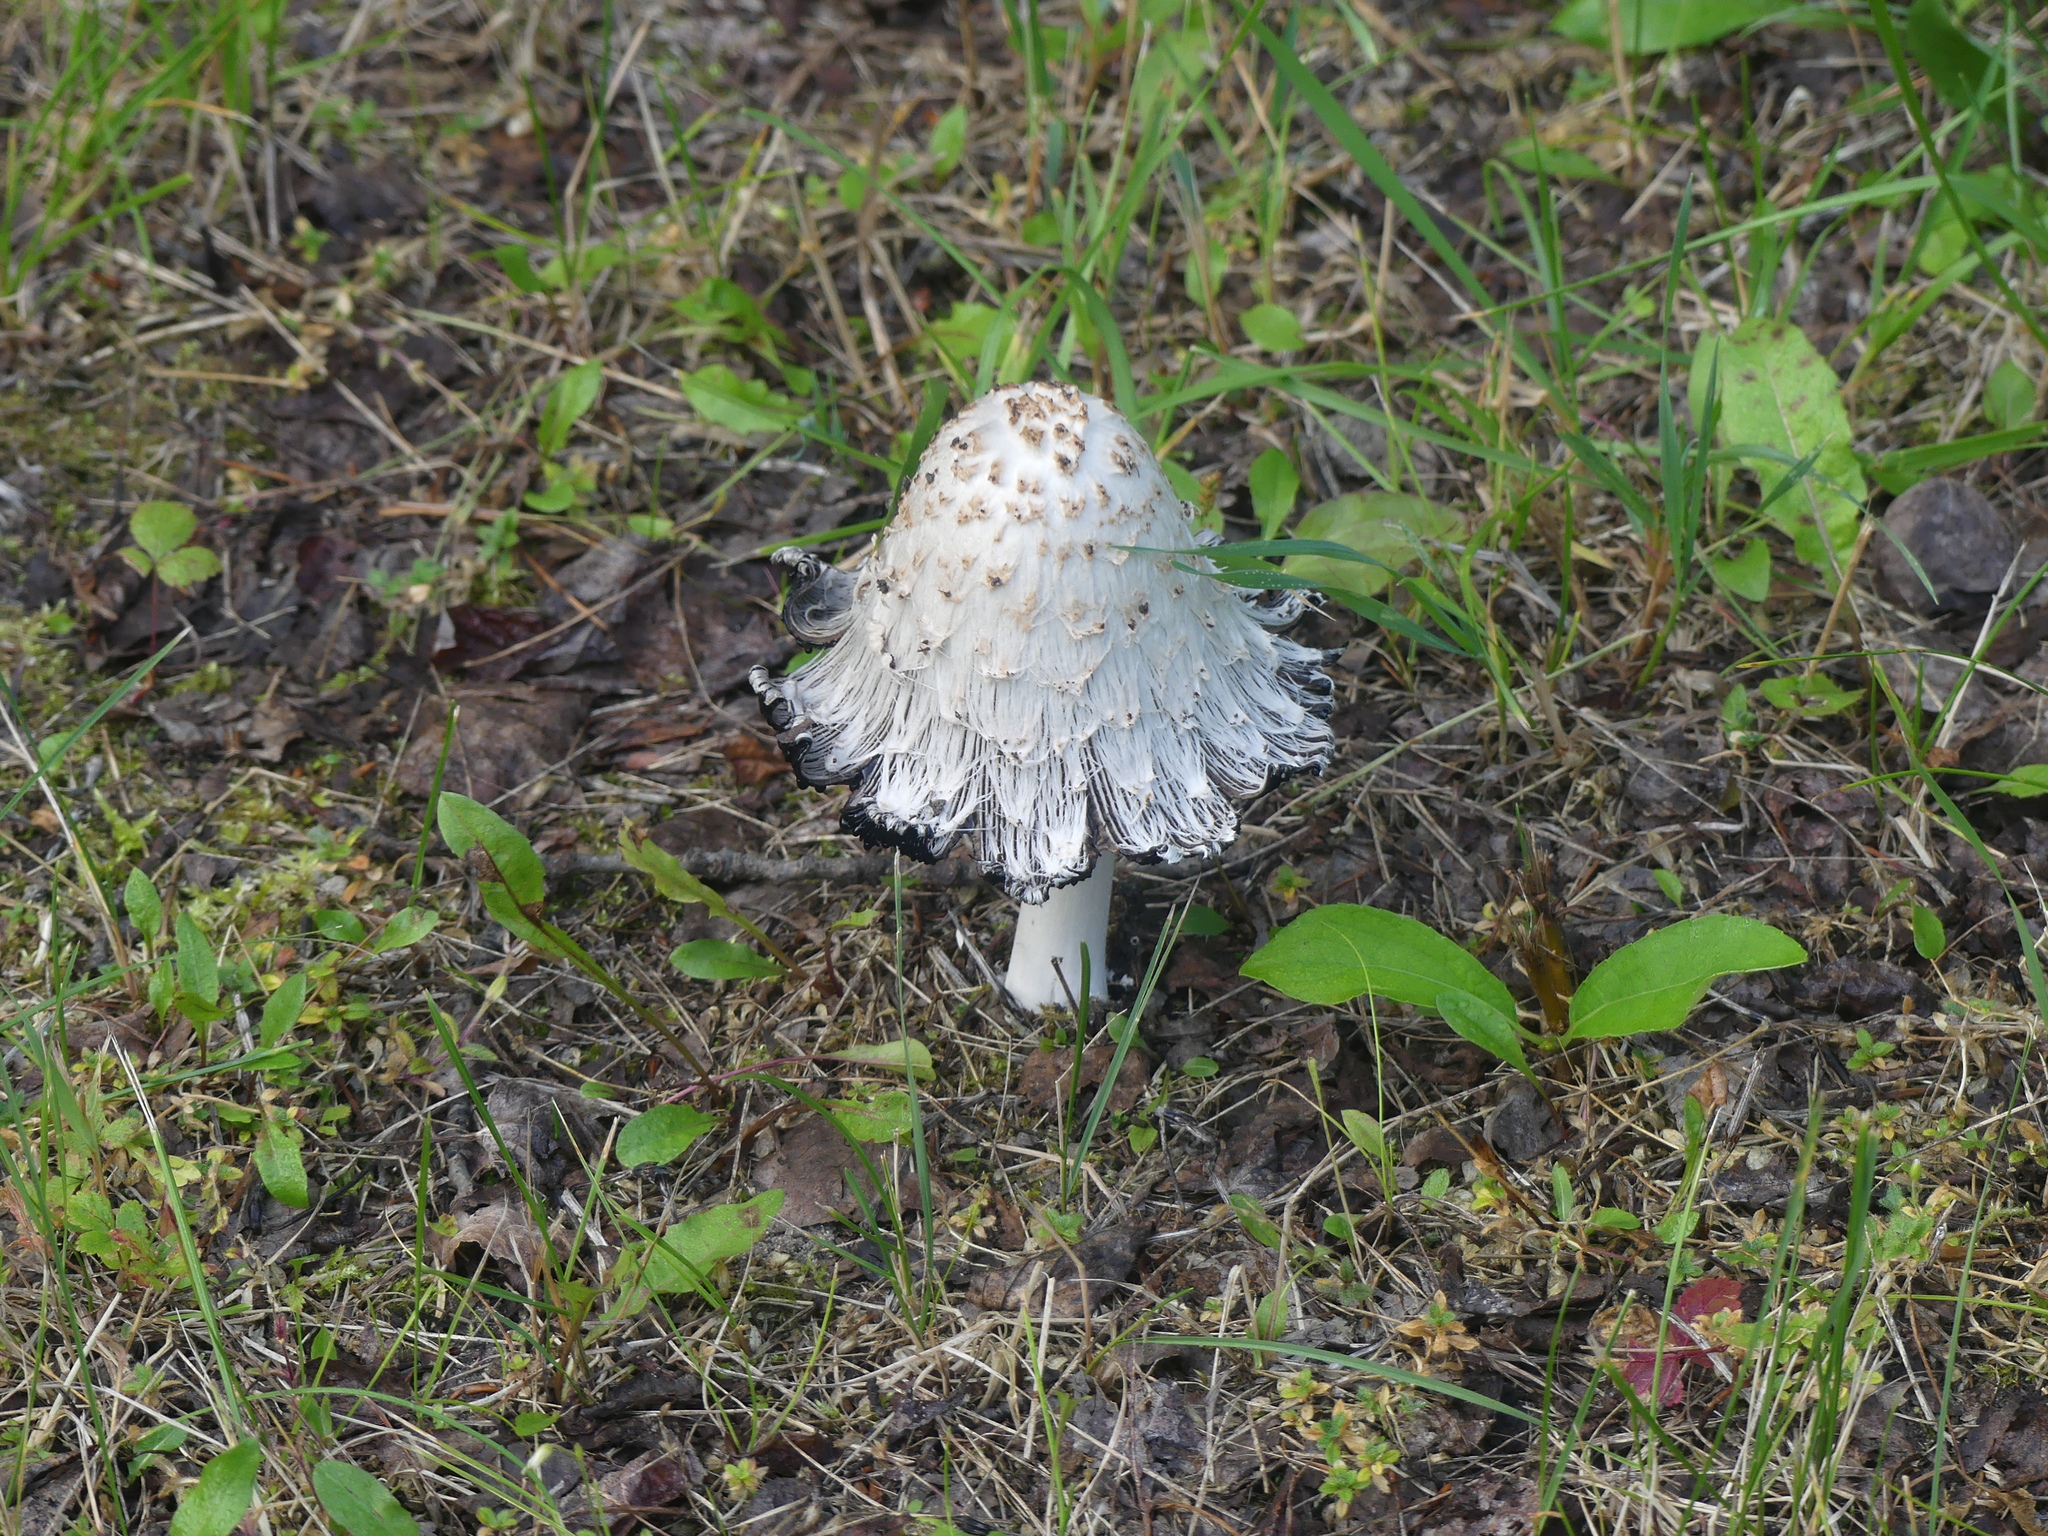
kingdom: Fungi
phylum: Basidiomycota
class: Agaricomycetes
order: Agaricales
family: Agaricaceae
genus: Coprinus
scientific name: Coprinus comatus
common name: Lawyer's wig
